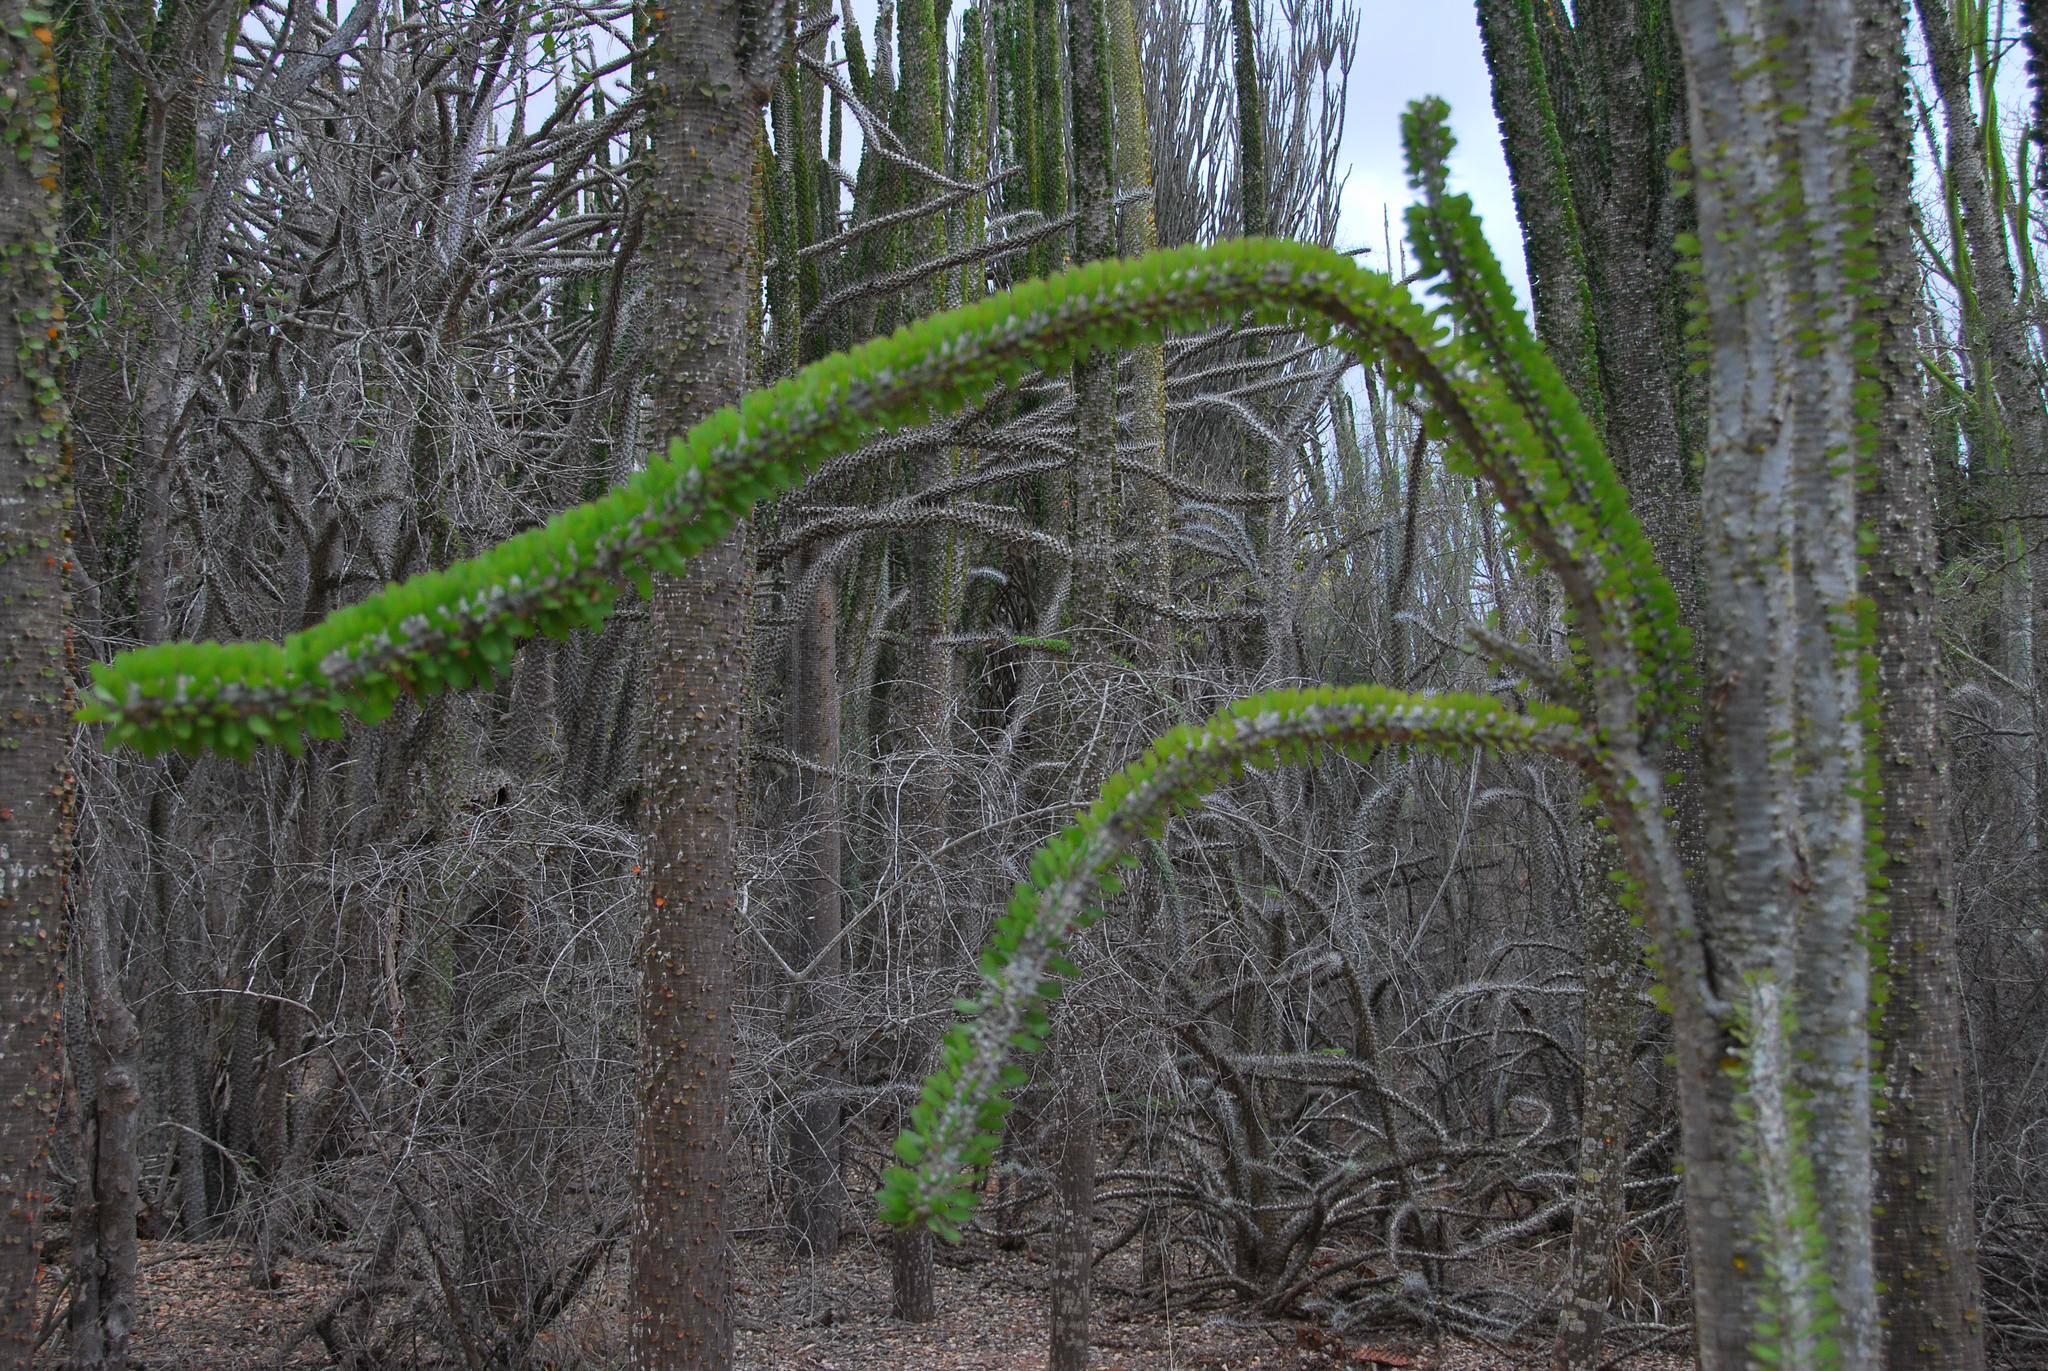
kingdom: Plantae
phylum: Tracheophyta
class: Magnoliopsida
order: Caryophyllales
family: Didiereaceae
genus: Alluaudia
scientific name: Alluaudia procera
